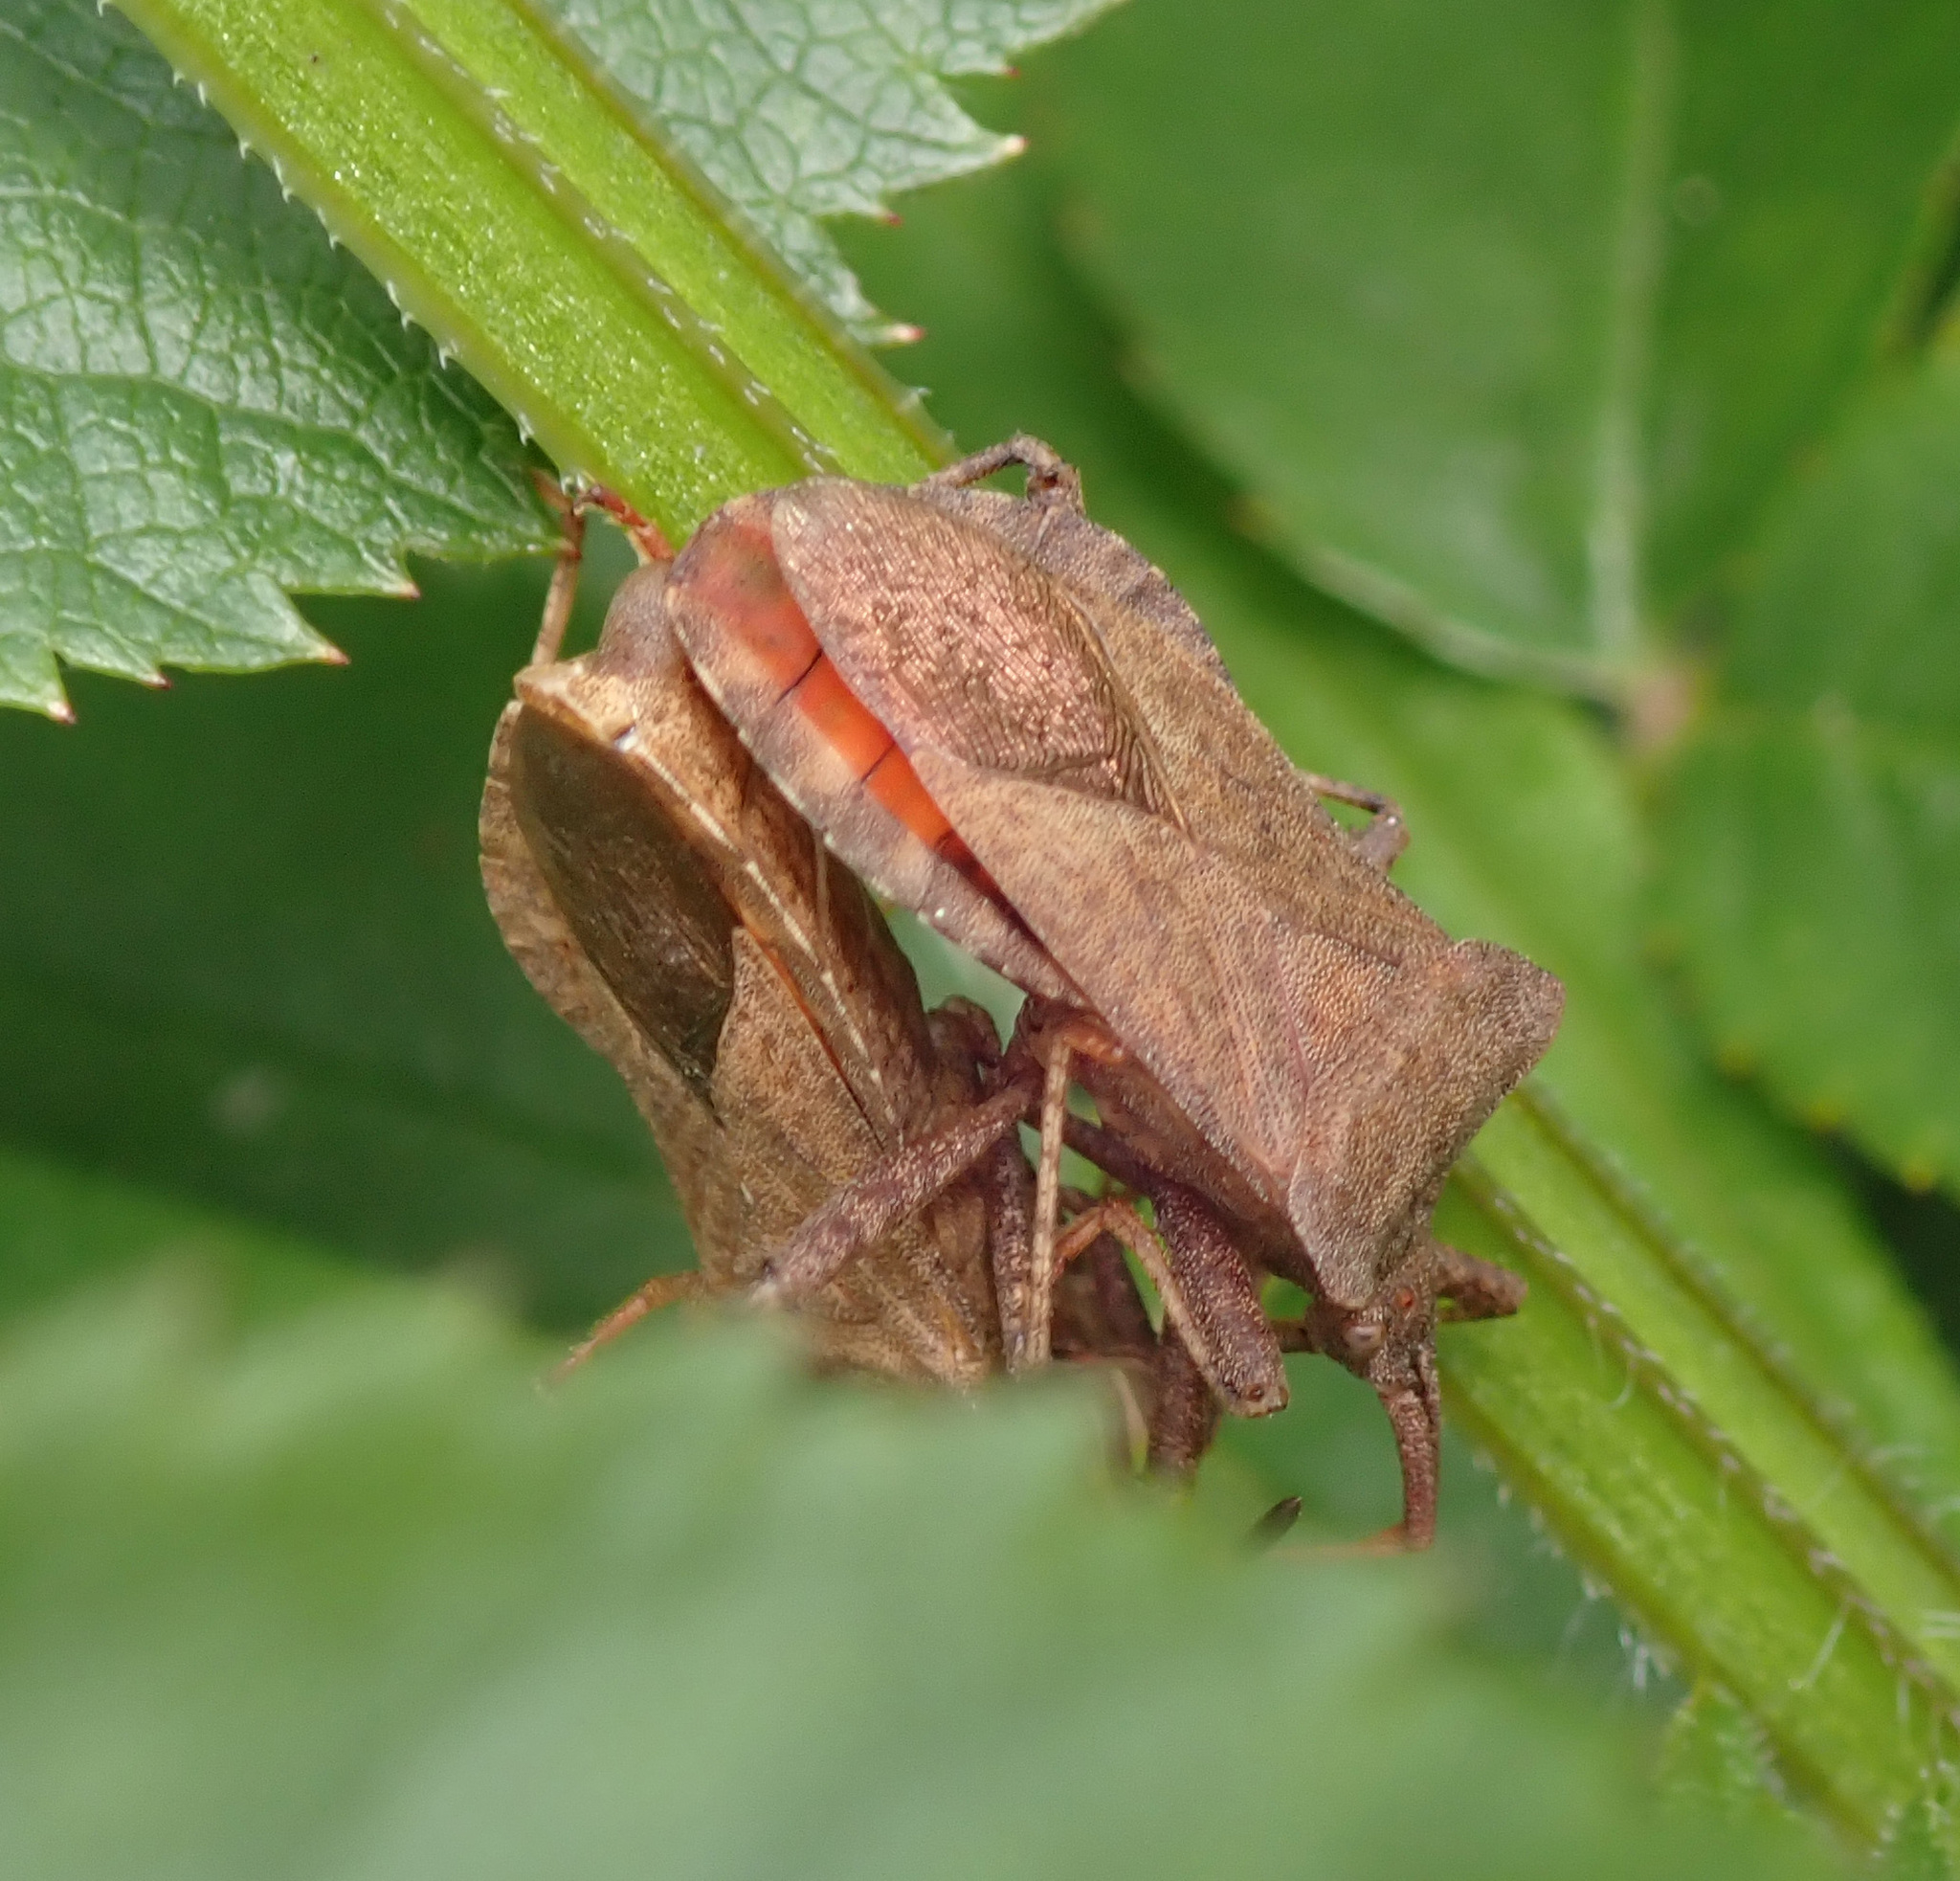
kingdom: Animalia
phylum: Arthropoda
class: Insecta
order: Hemiptera
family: Coreidae
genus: Coreus
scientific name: Coreus marginatus
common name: Dock bug
